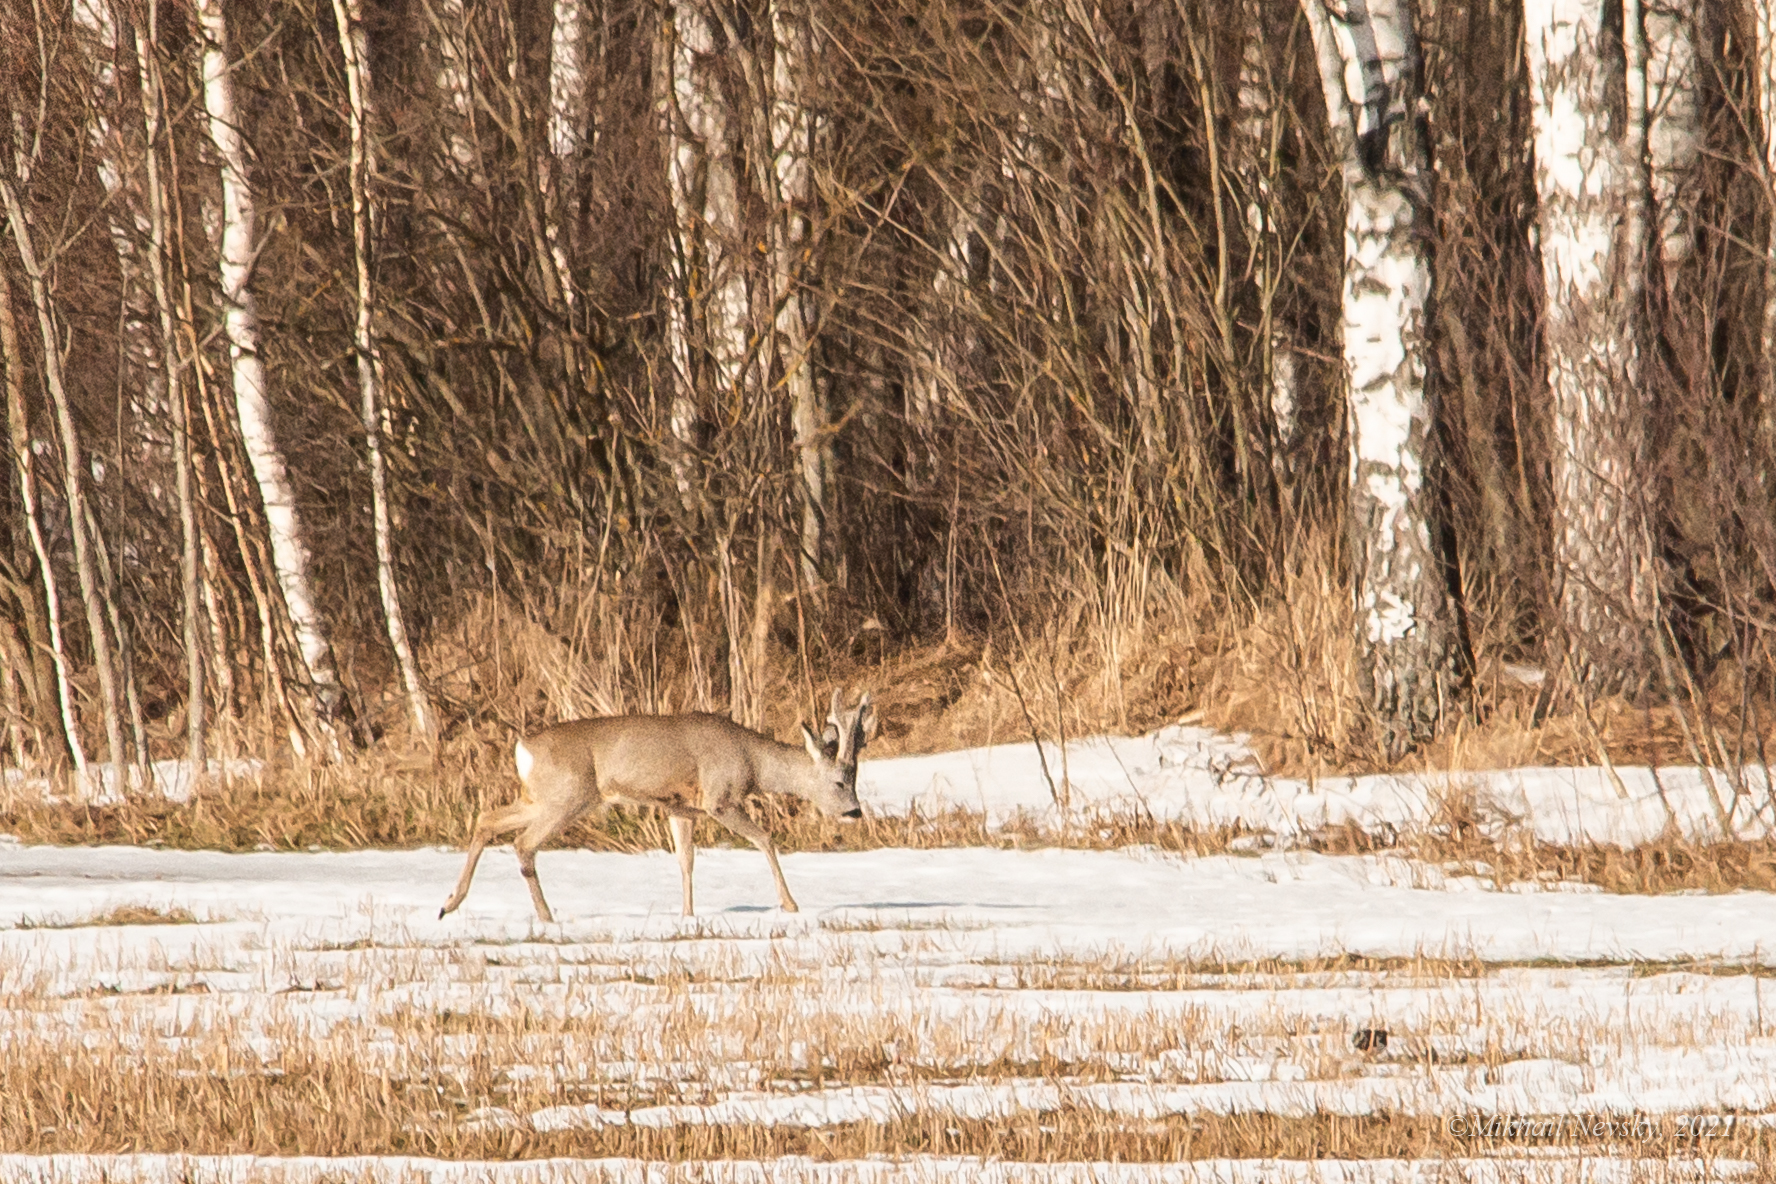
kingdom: Animalia
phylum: Chordata
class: Mammalia
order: Artiodactyla
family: Cervidae
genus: Capreolus
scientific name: Capreolus capreolus
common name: Western roe deer
